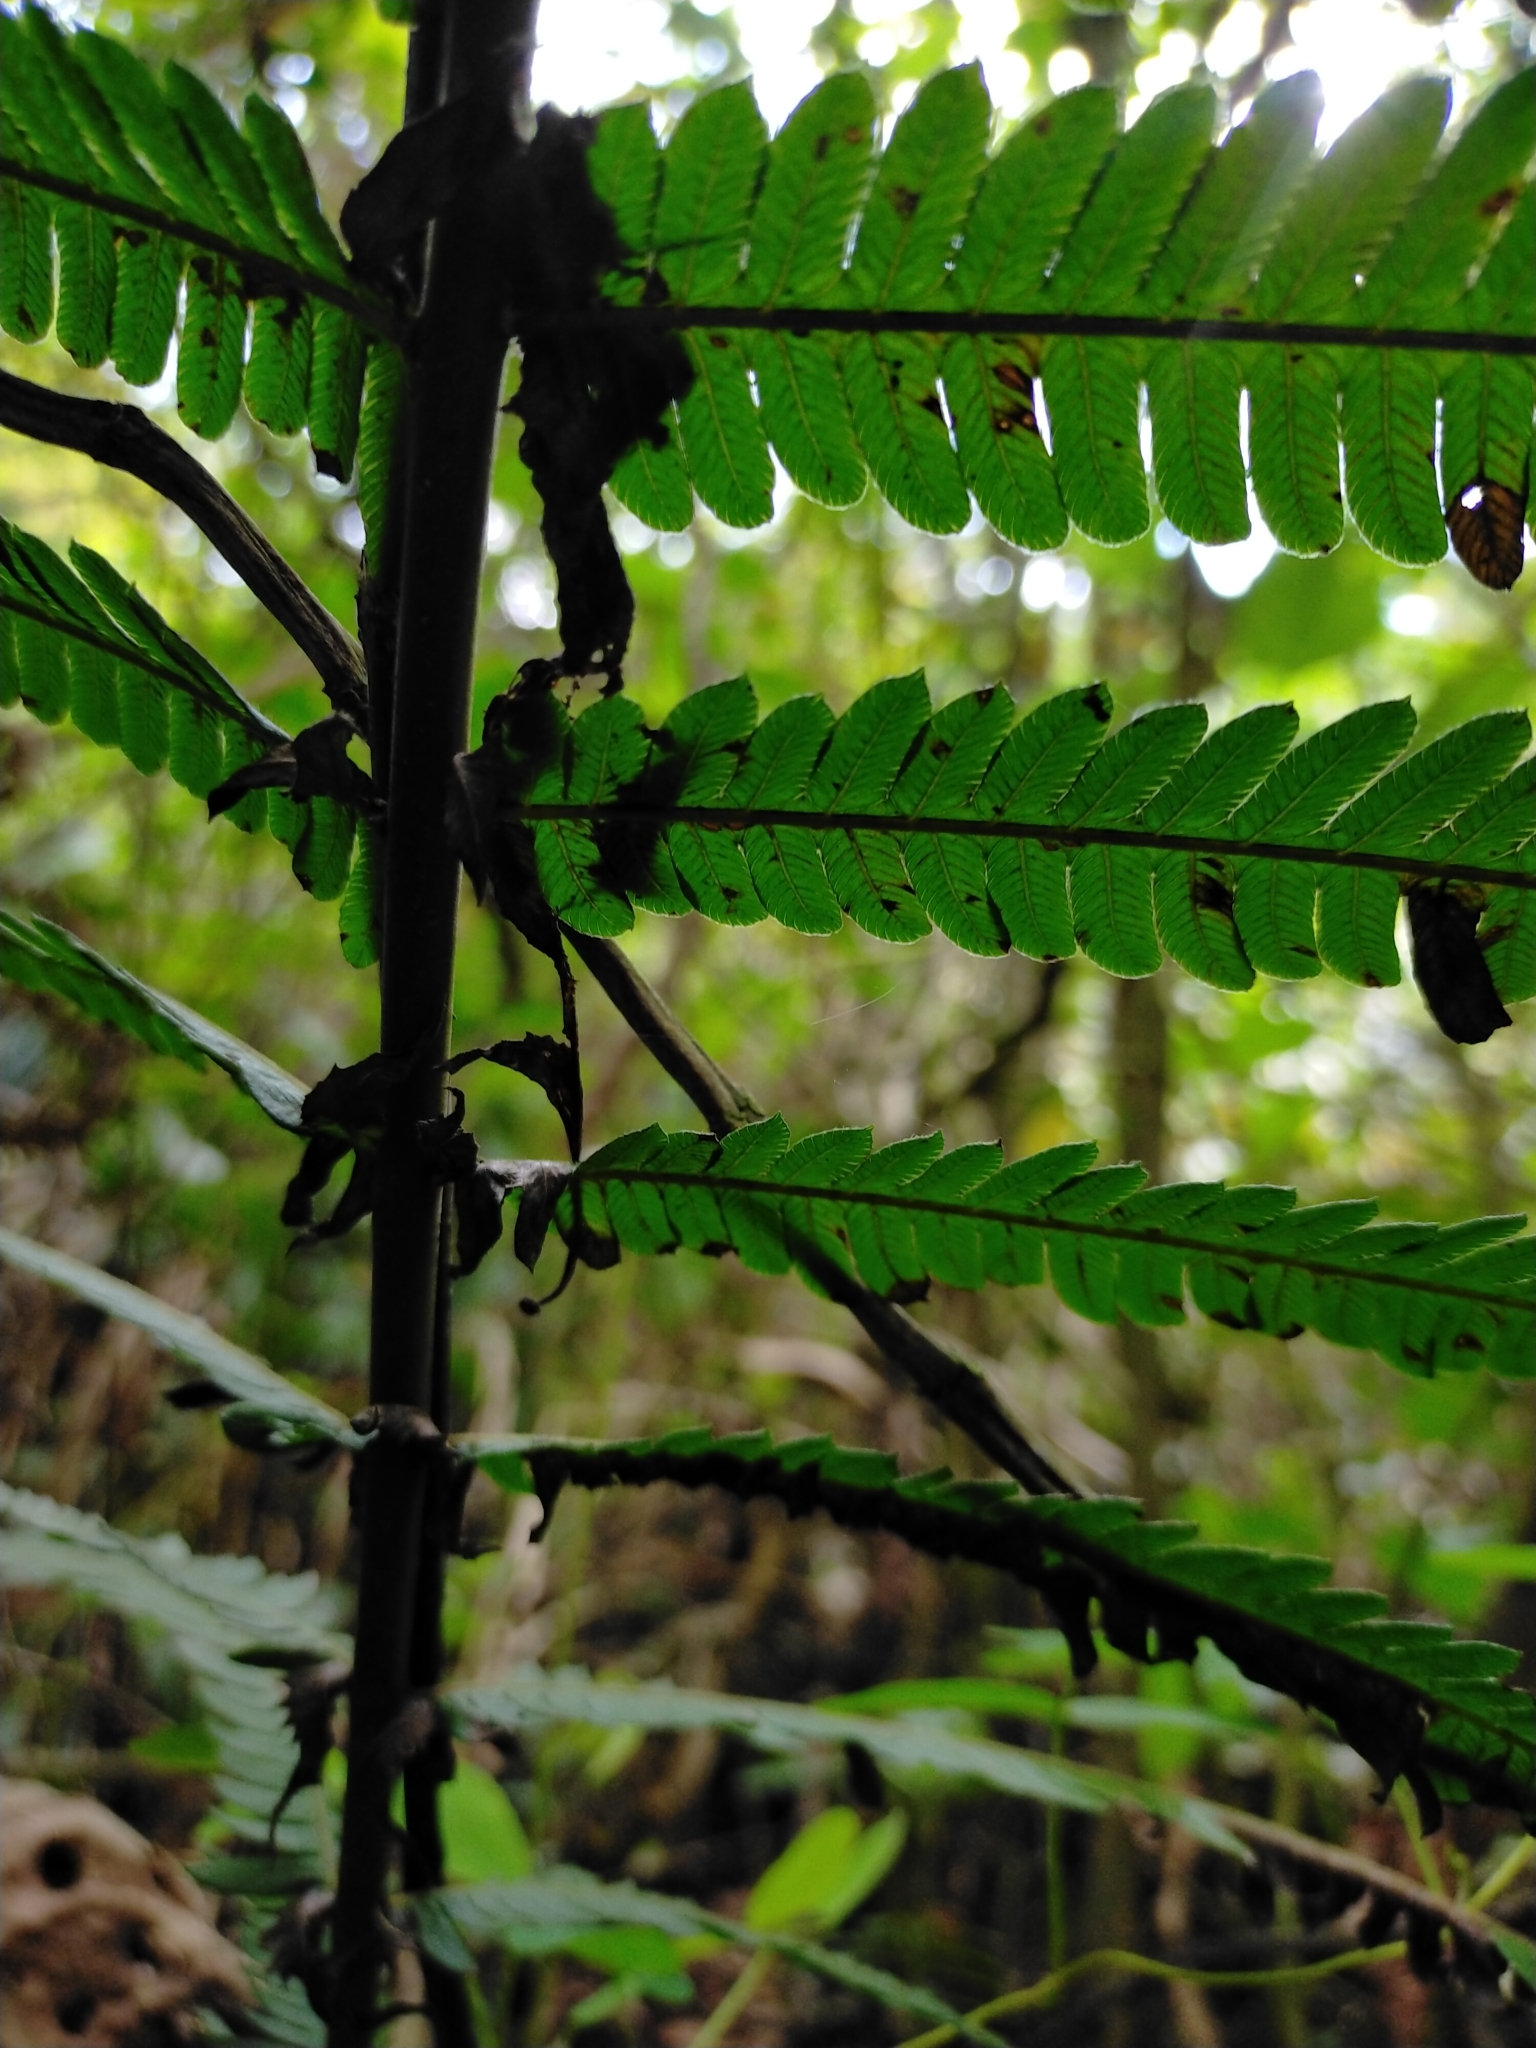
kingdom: Plantae
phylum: Tracheophyta
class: Polypodiopsida
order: Polypodiales
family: Thelypteridaceae
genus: Pseudocyclosorus
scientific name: Pseudocyclosorus esquirolii
